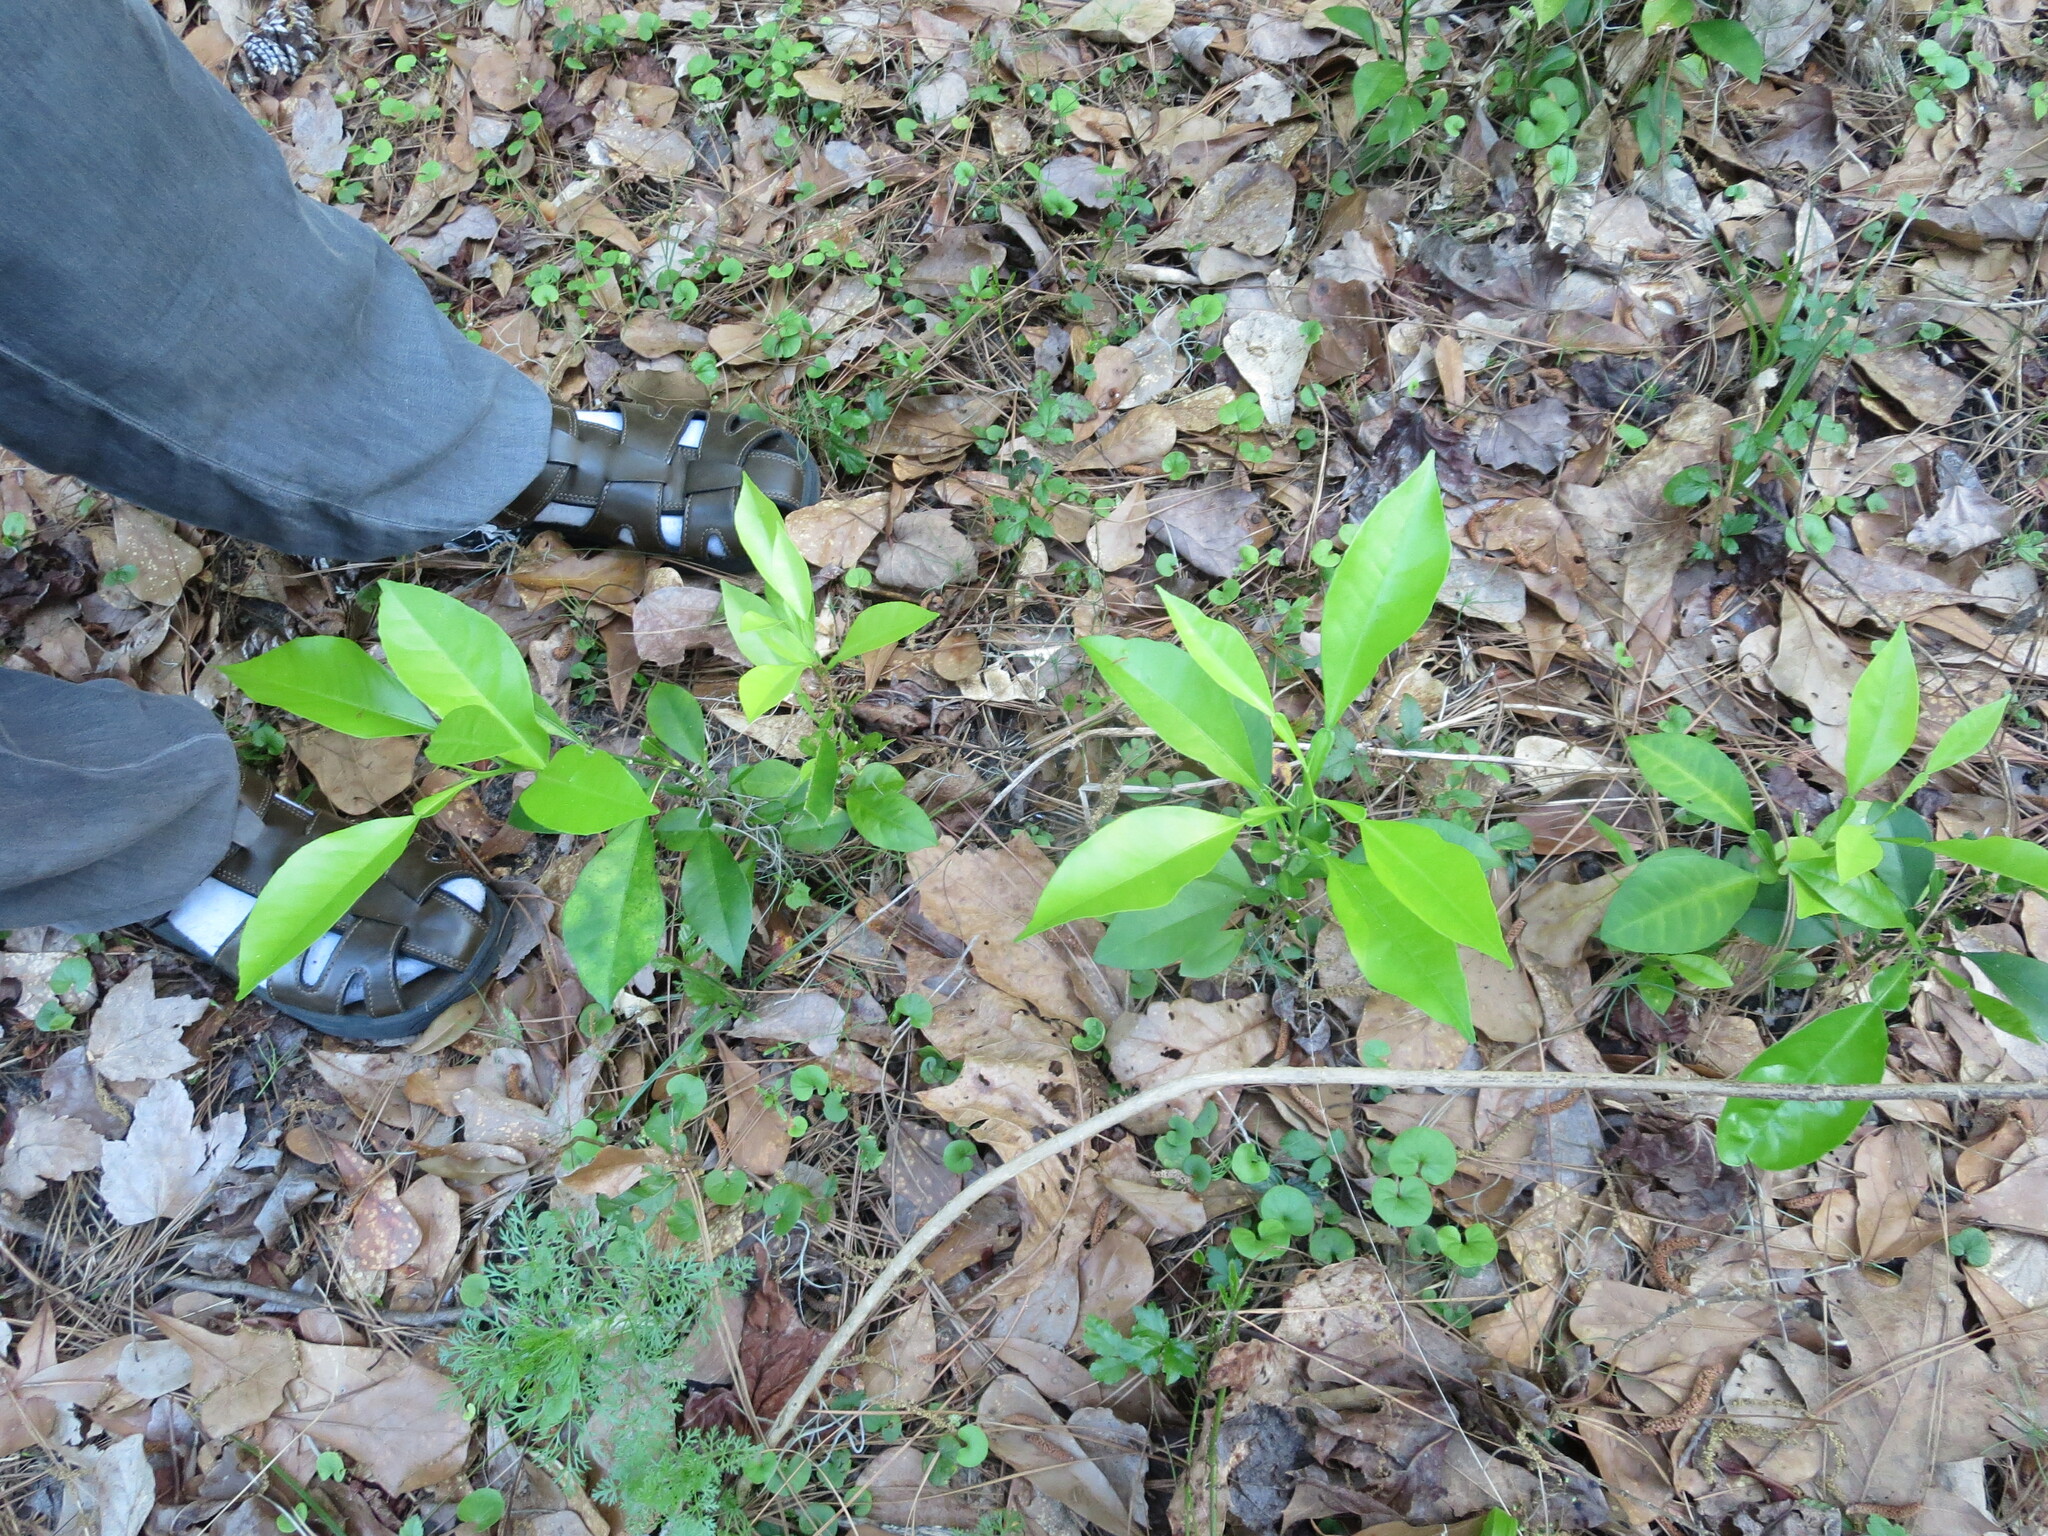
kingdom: Plantae
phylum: Tracheophyta
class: Magnoliopsida
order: Sapindales
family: Rutaceae
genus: Citrus
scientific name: Citrus aurantium
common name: Sour orange
